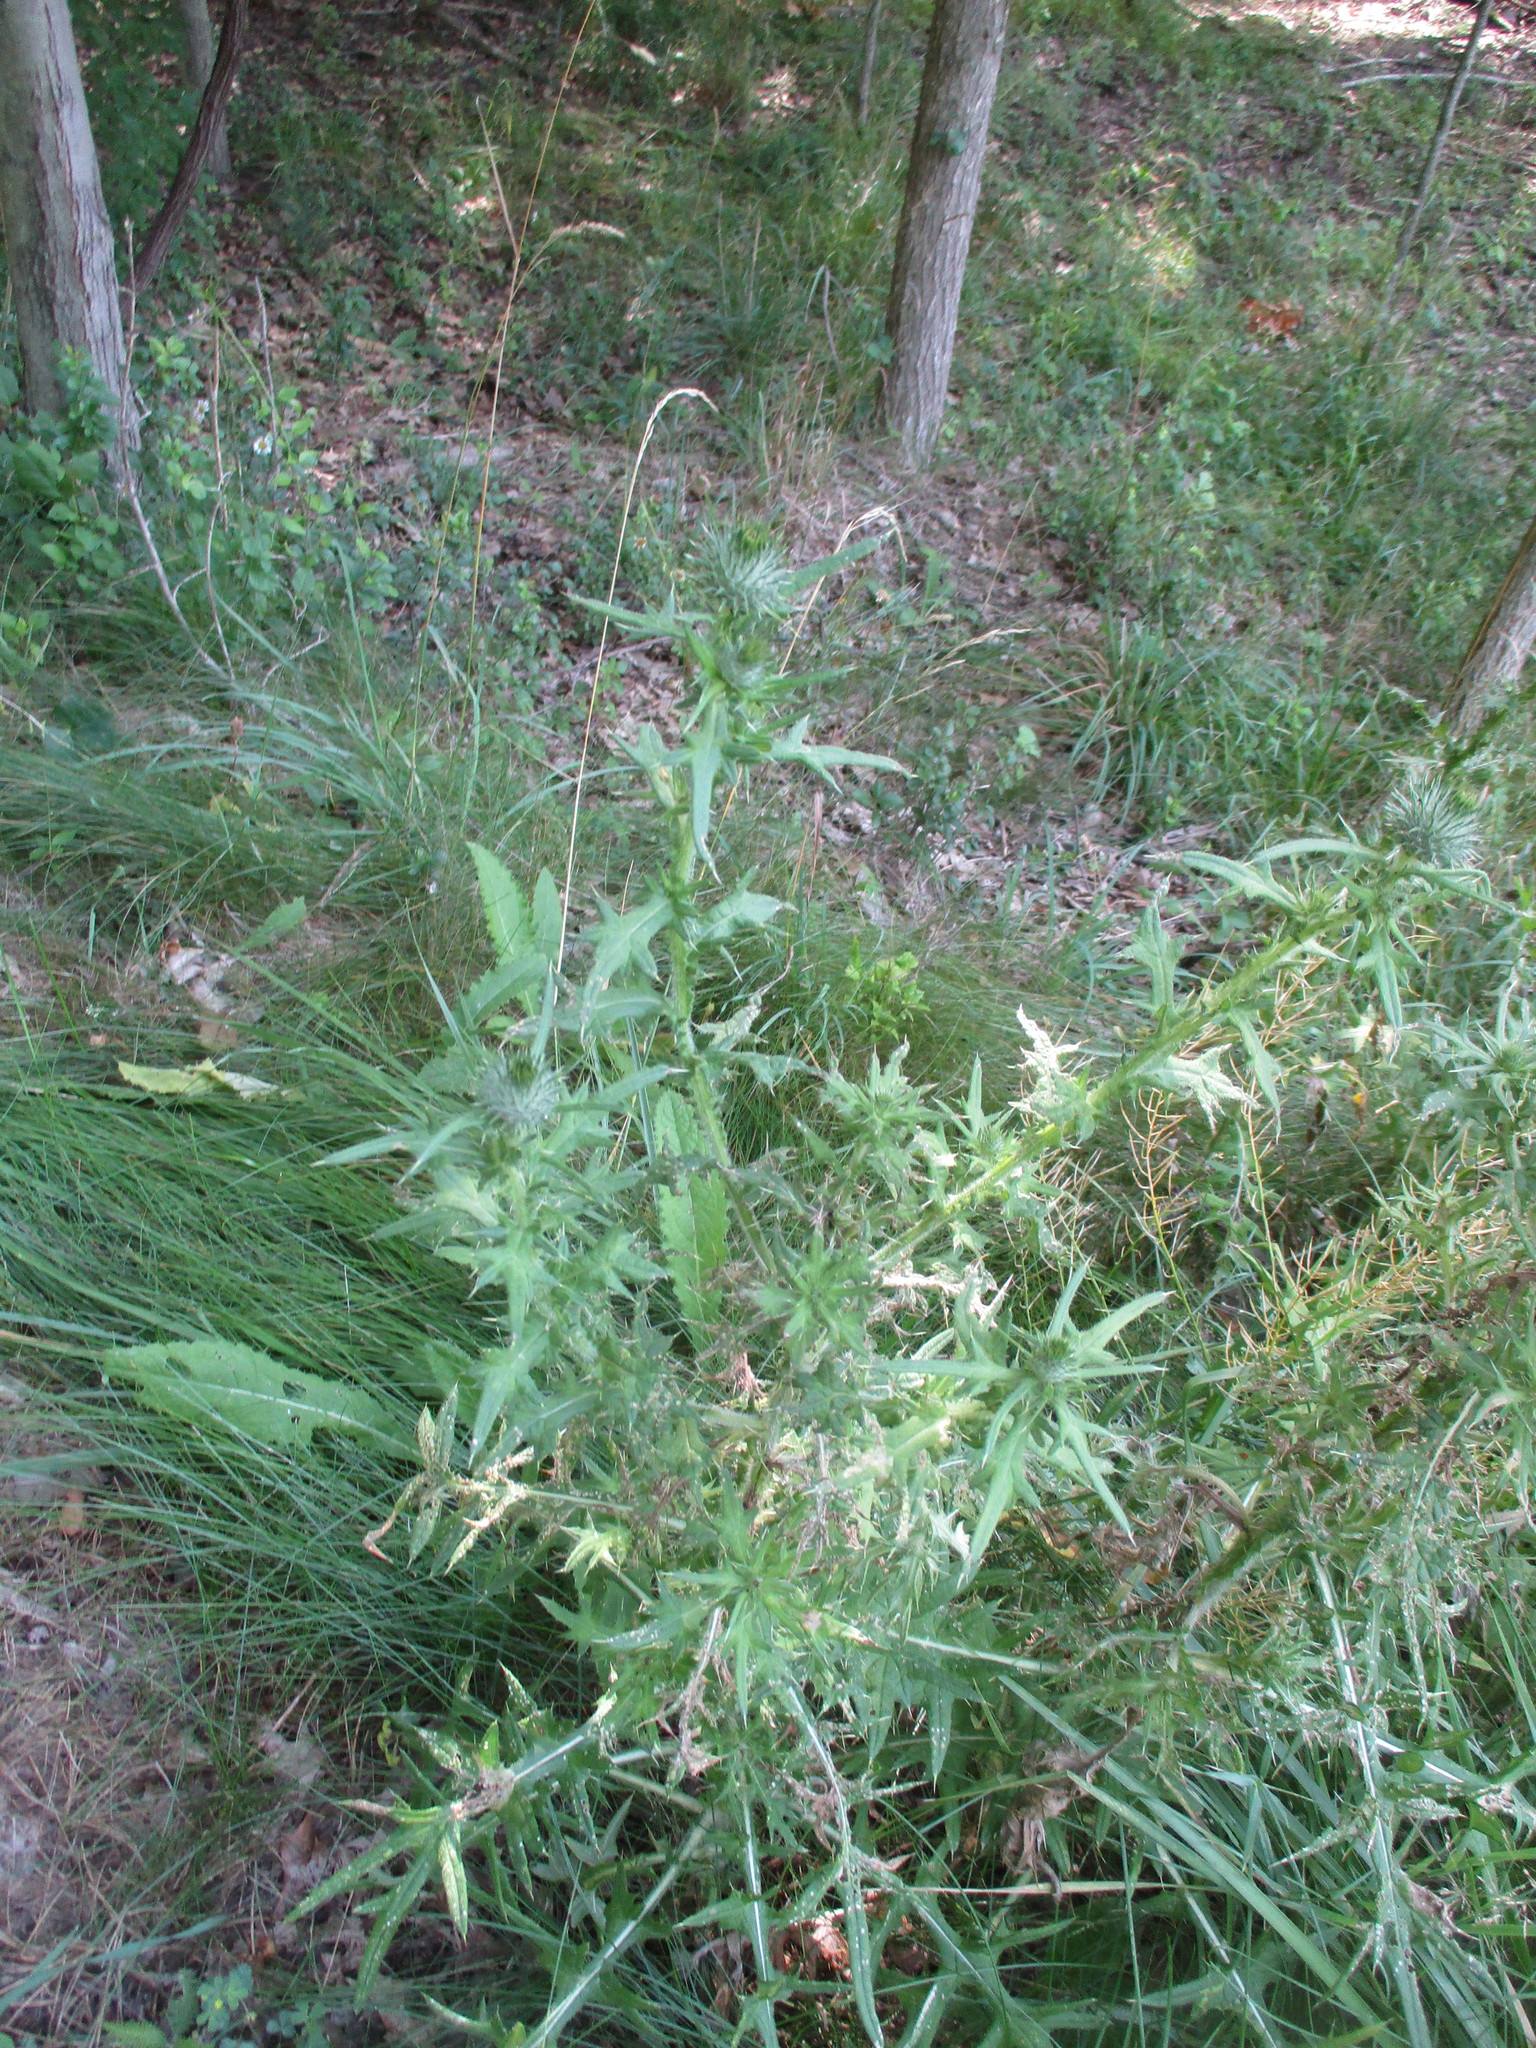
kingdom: Plantae
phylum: Tracheophyta
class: Magnoliopsida
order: Asterales
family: Asteraceae
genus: Cirsium
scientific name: Cirsium vulgare
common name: Bull thistle
